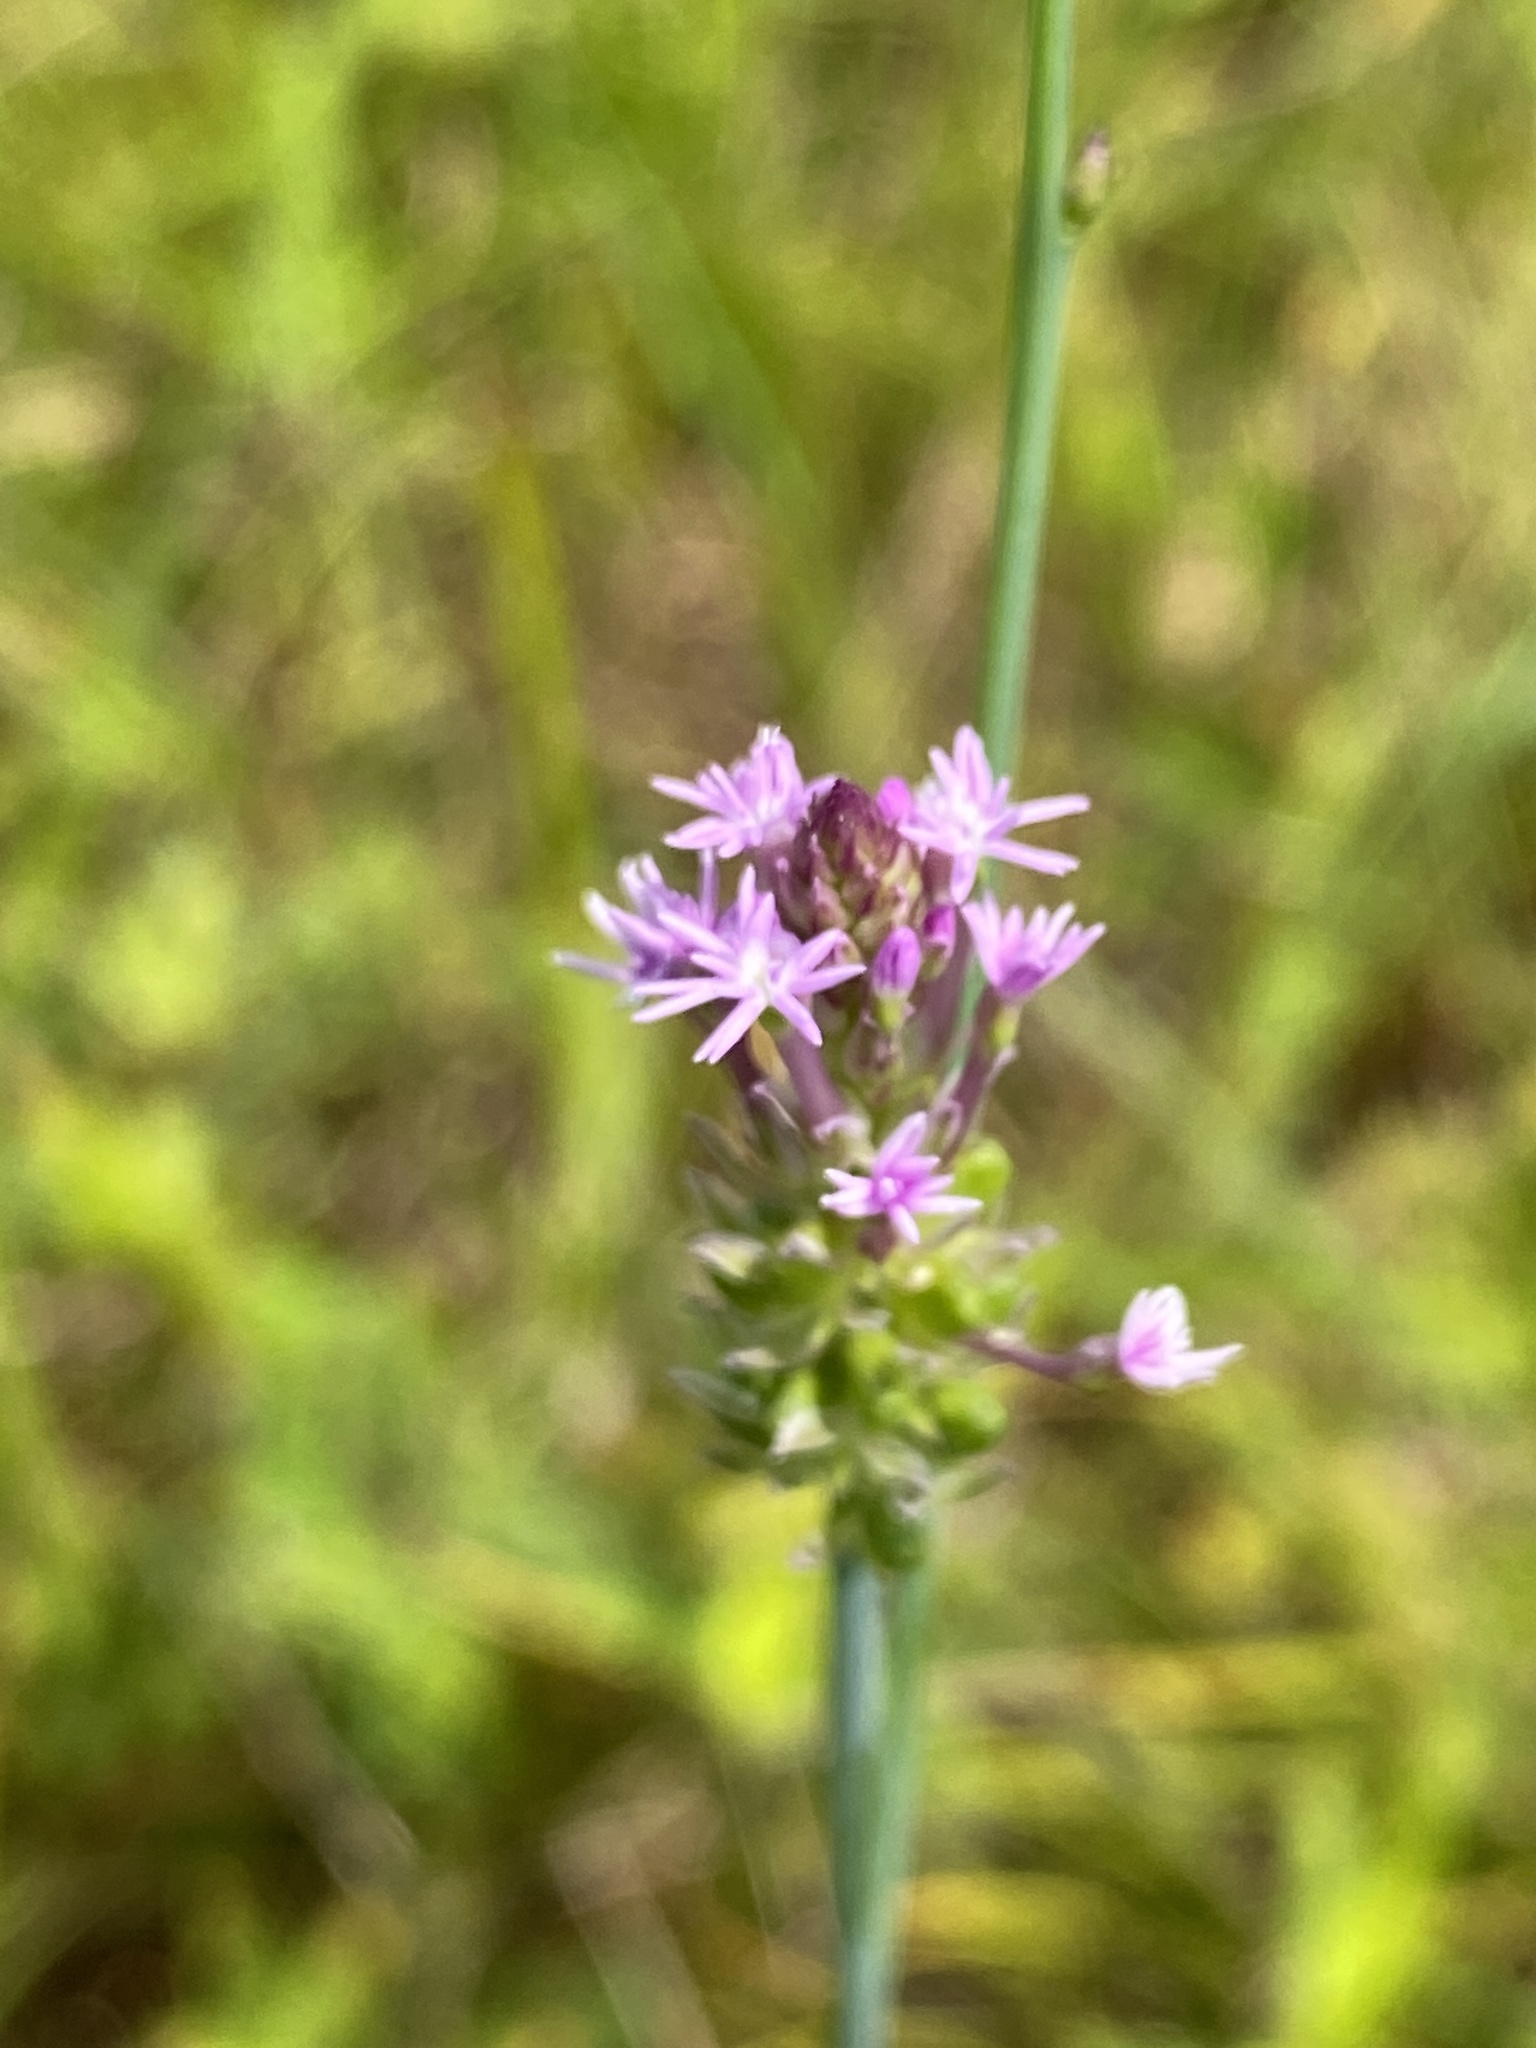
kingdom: Plantae
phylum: Tracheophyta
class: Magnoliopsida
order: Fabales
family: Polygalaceae
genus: Polygala
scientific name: Polygala incarnata
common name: Pink milkwort
